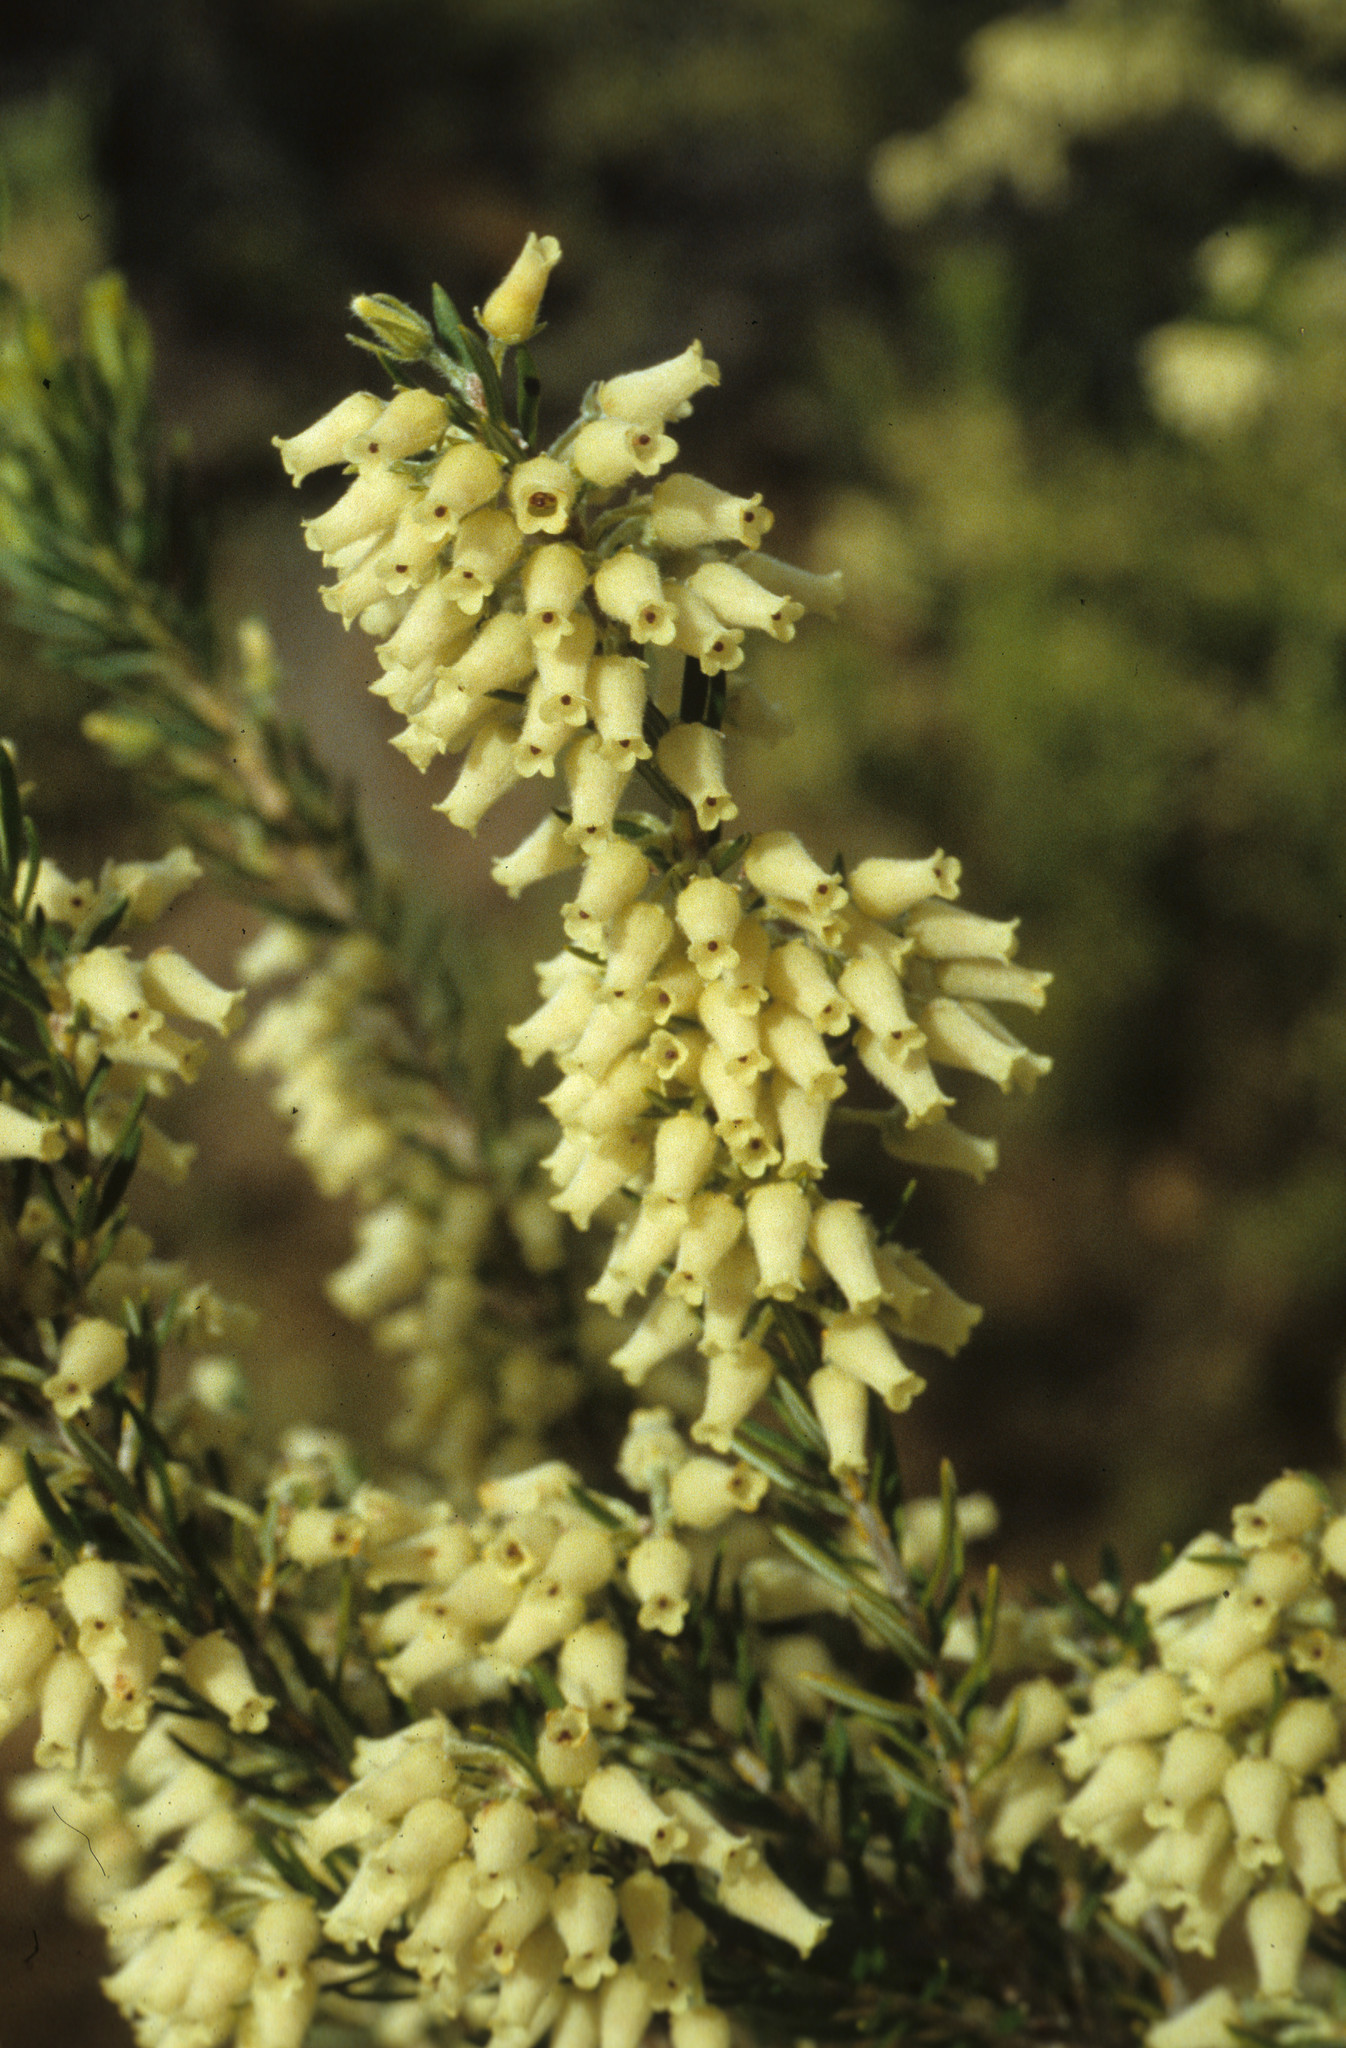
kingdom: Plantae
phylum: Tracheophyta
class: Magnoliopsida
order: Ericales
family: Ericaceae
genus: Erica
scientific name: Erica caffra
